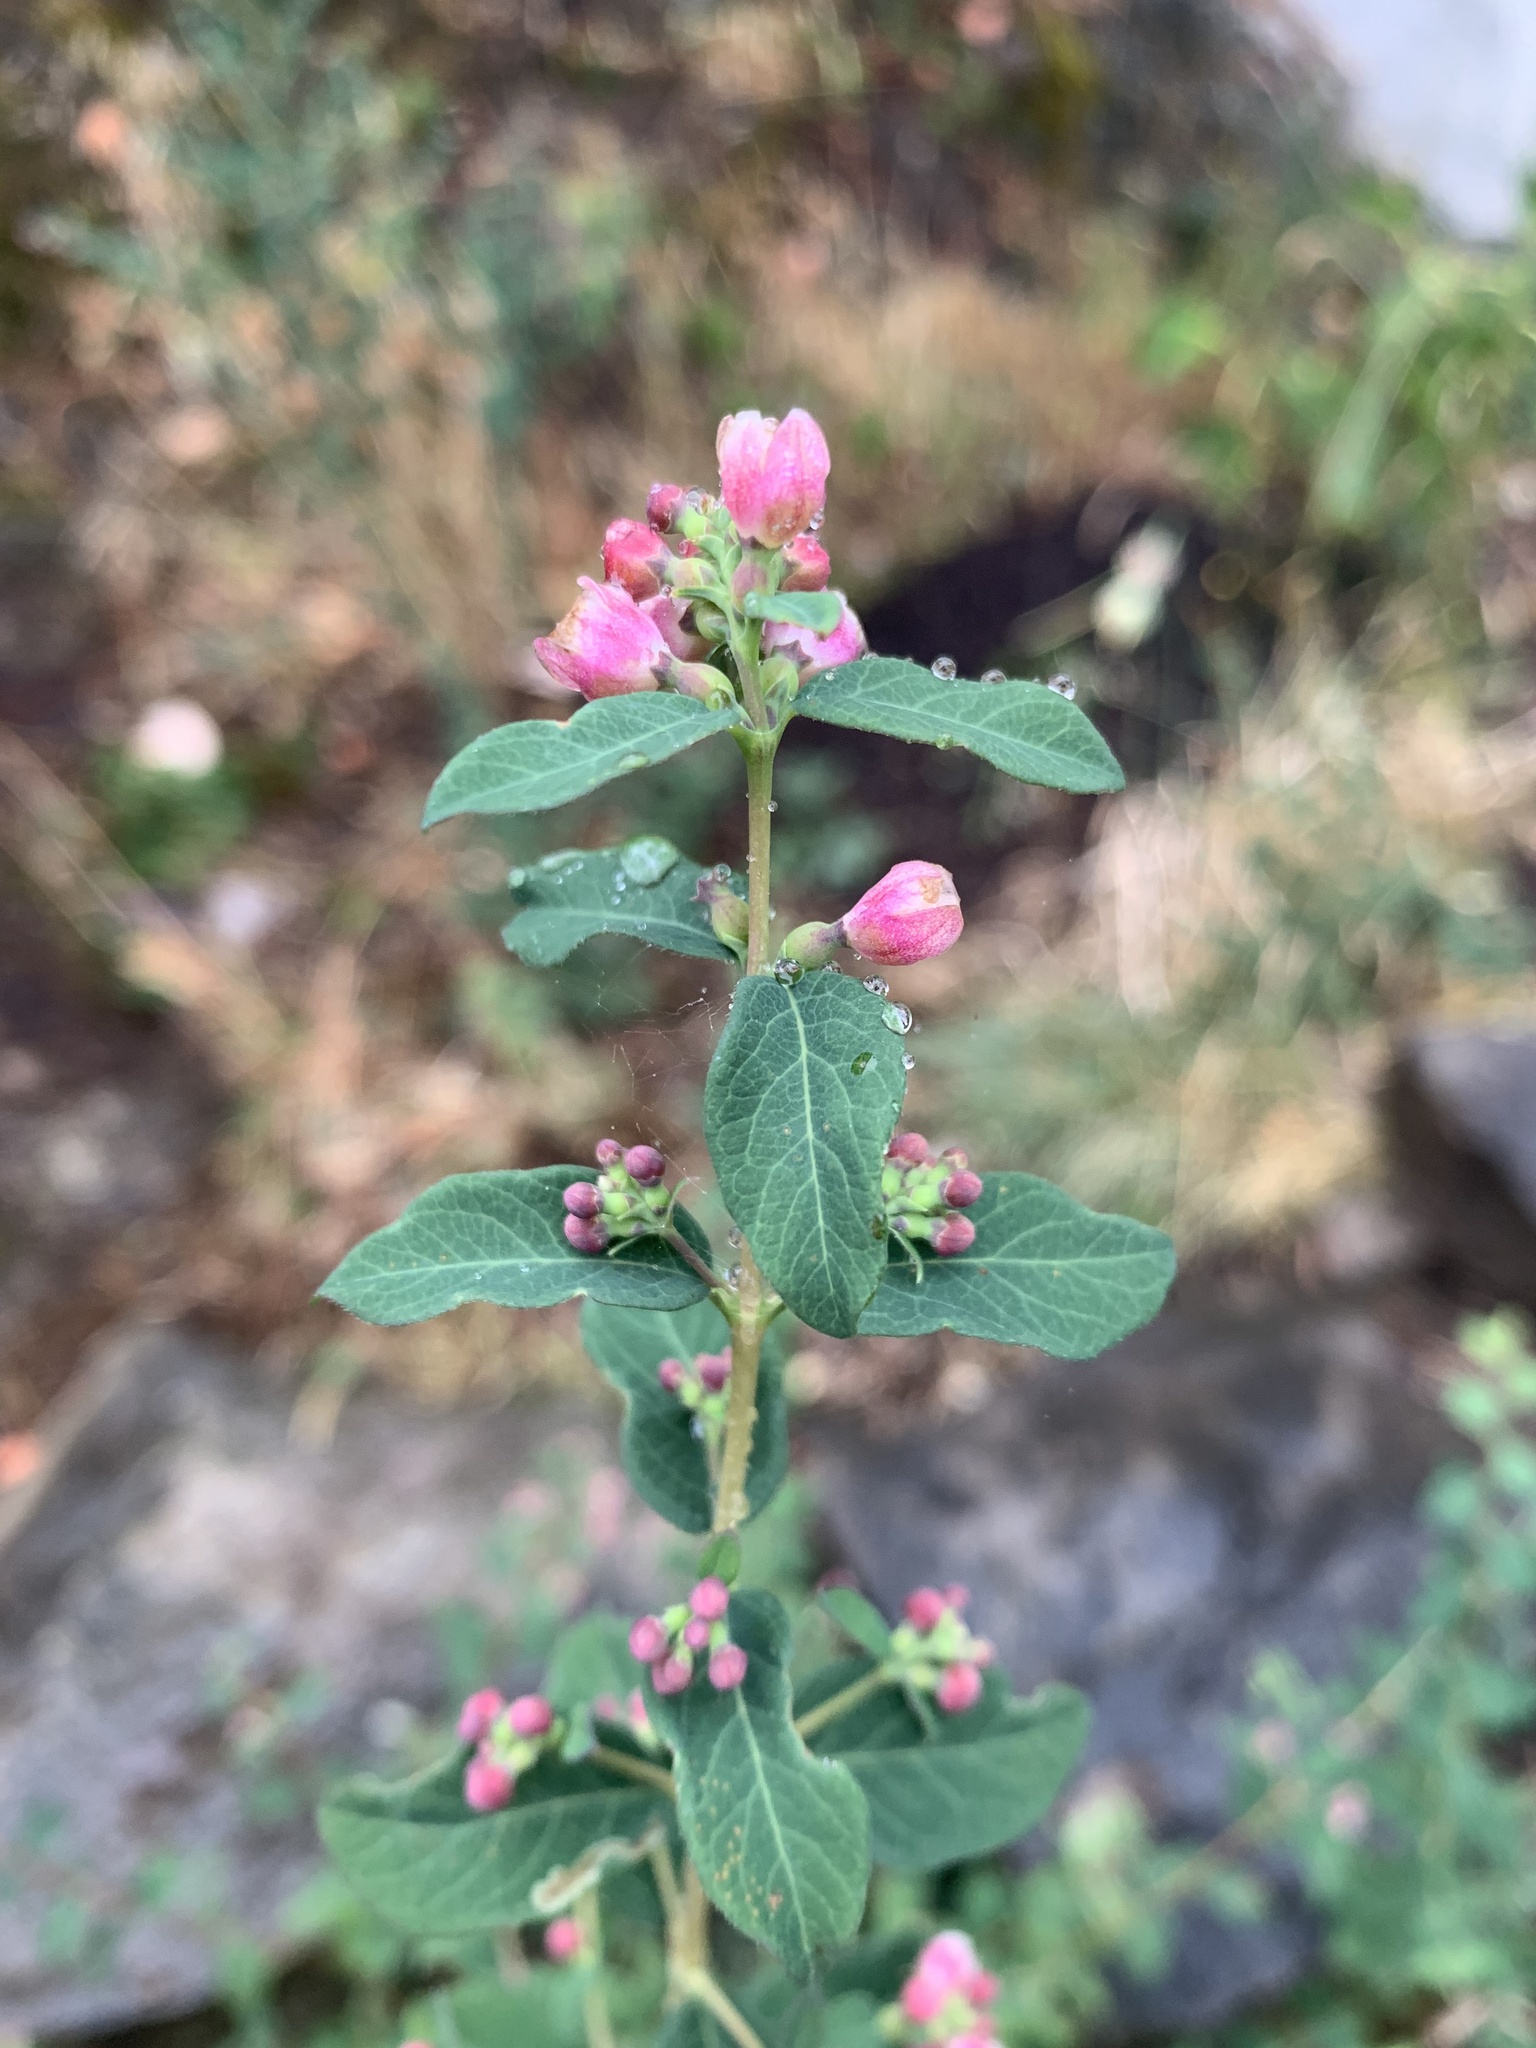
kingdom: Plantae
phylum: Tracheophyta
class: Magnoliopsida
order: Dipsacales
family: Caprifoliaceae
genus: Symphoricarpos
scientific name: Symphoricarpos albus
